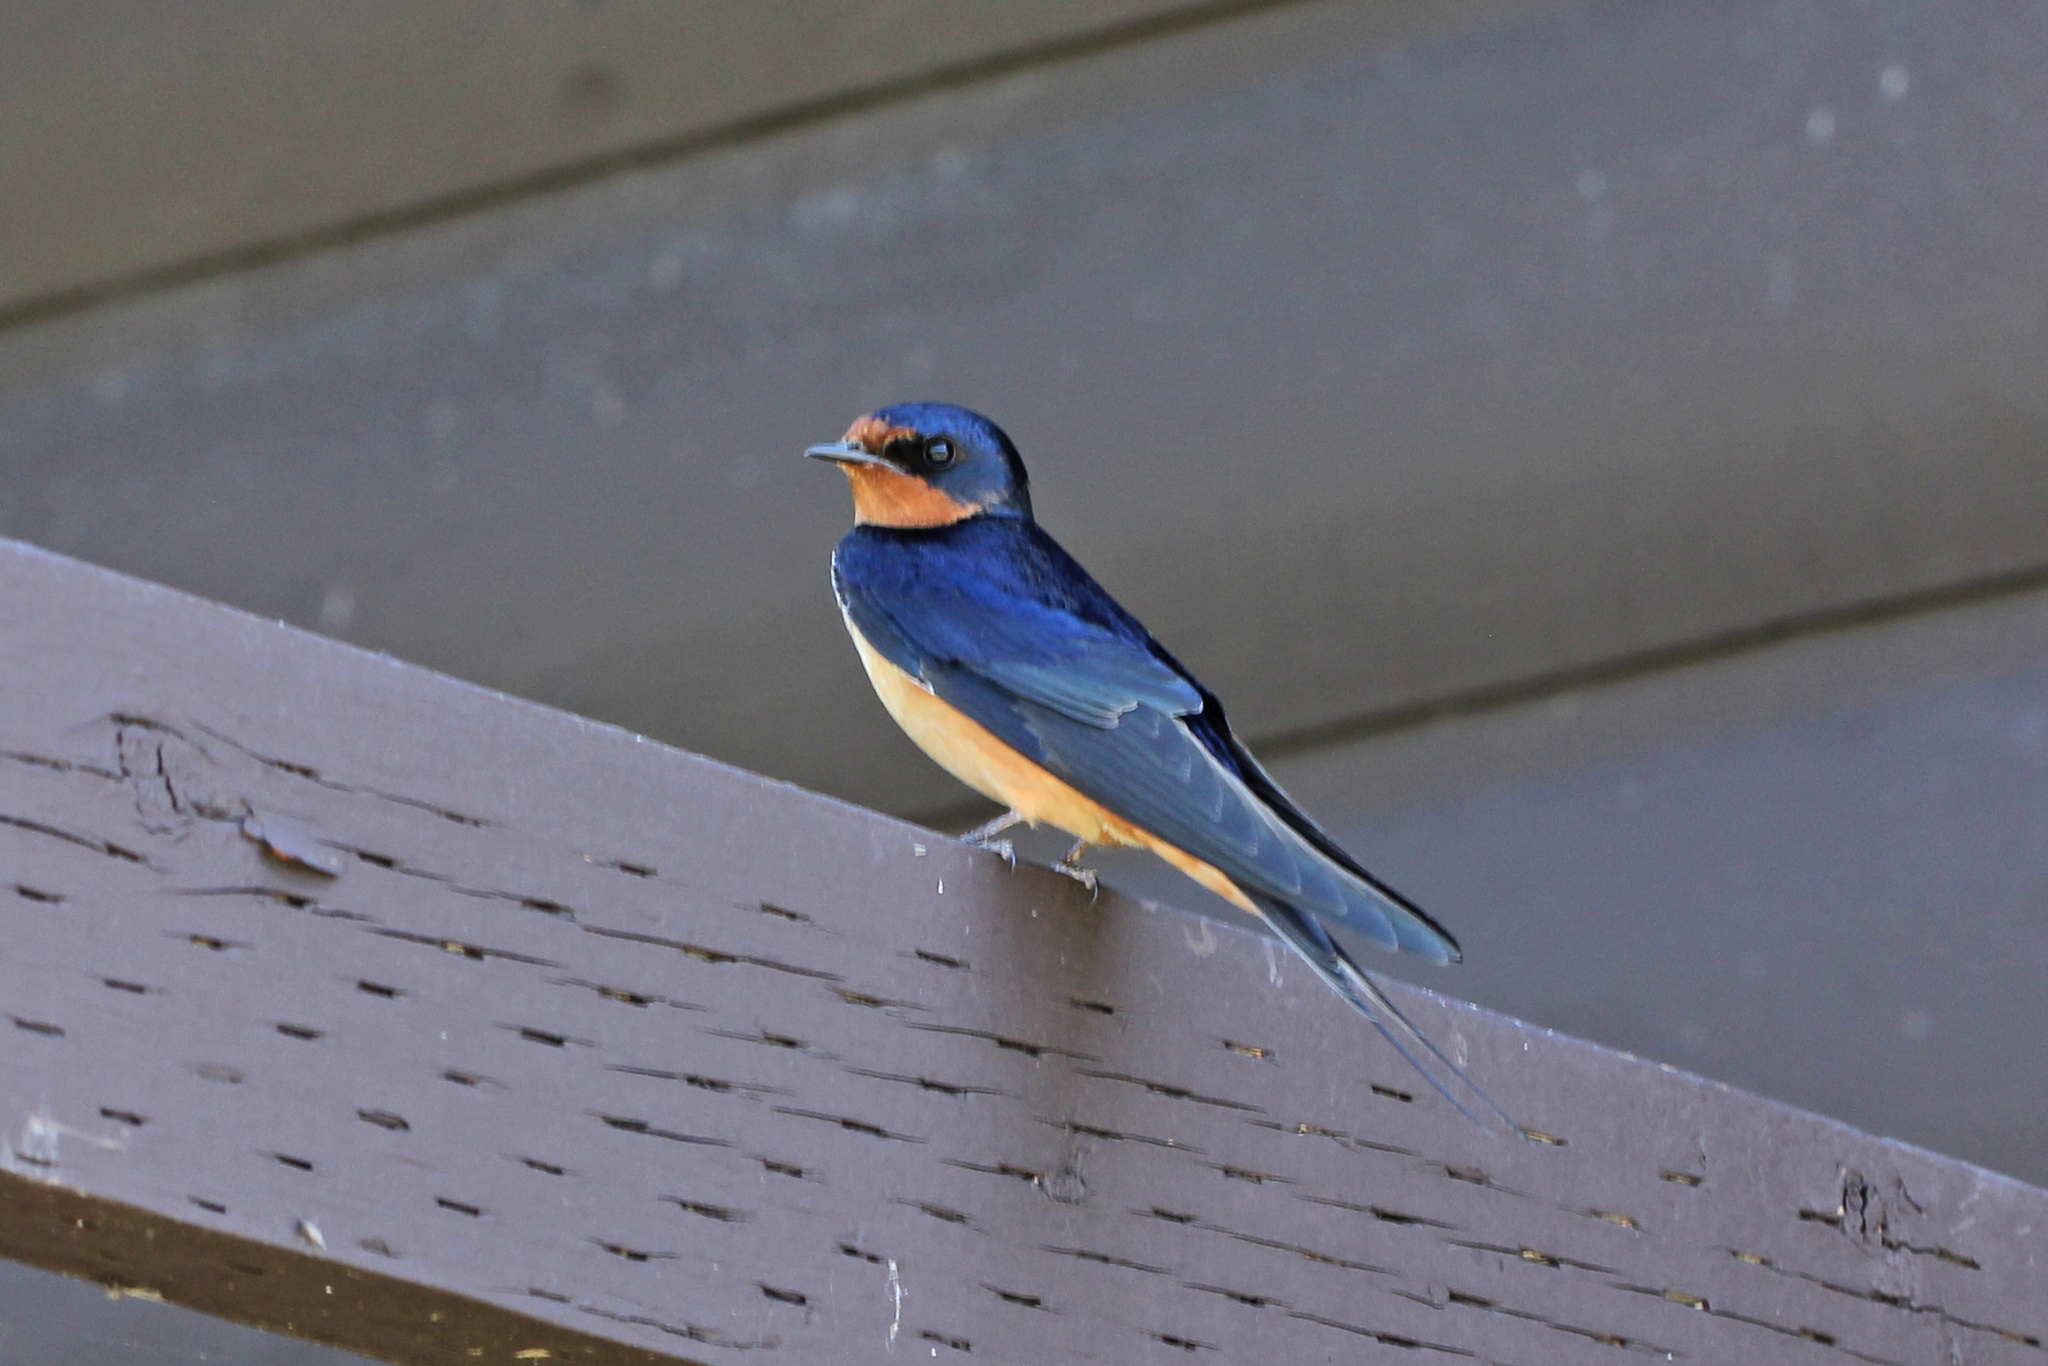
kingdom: Animalia
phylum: Chordata
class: Aves
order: Passeriformes
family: Hirundinidae
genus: Hirundo
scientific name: Hirundo rustica
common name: Barn swallow
